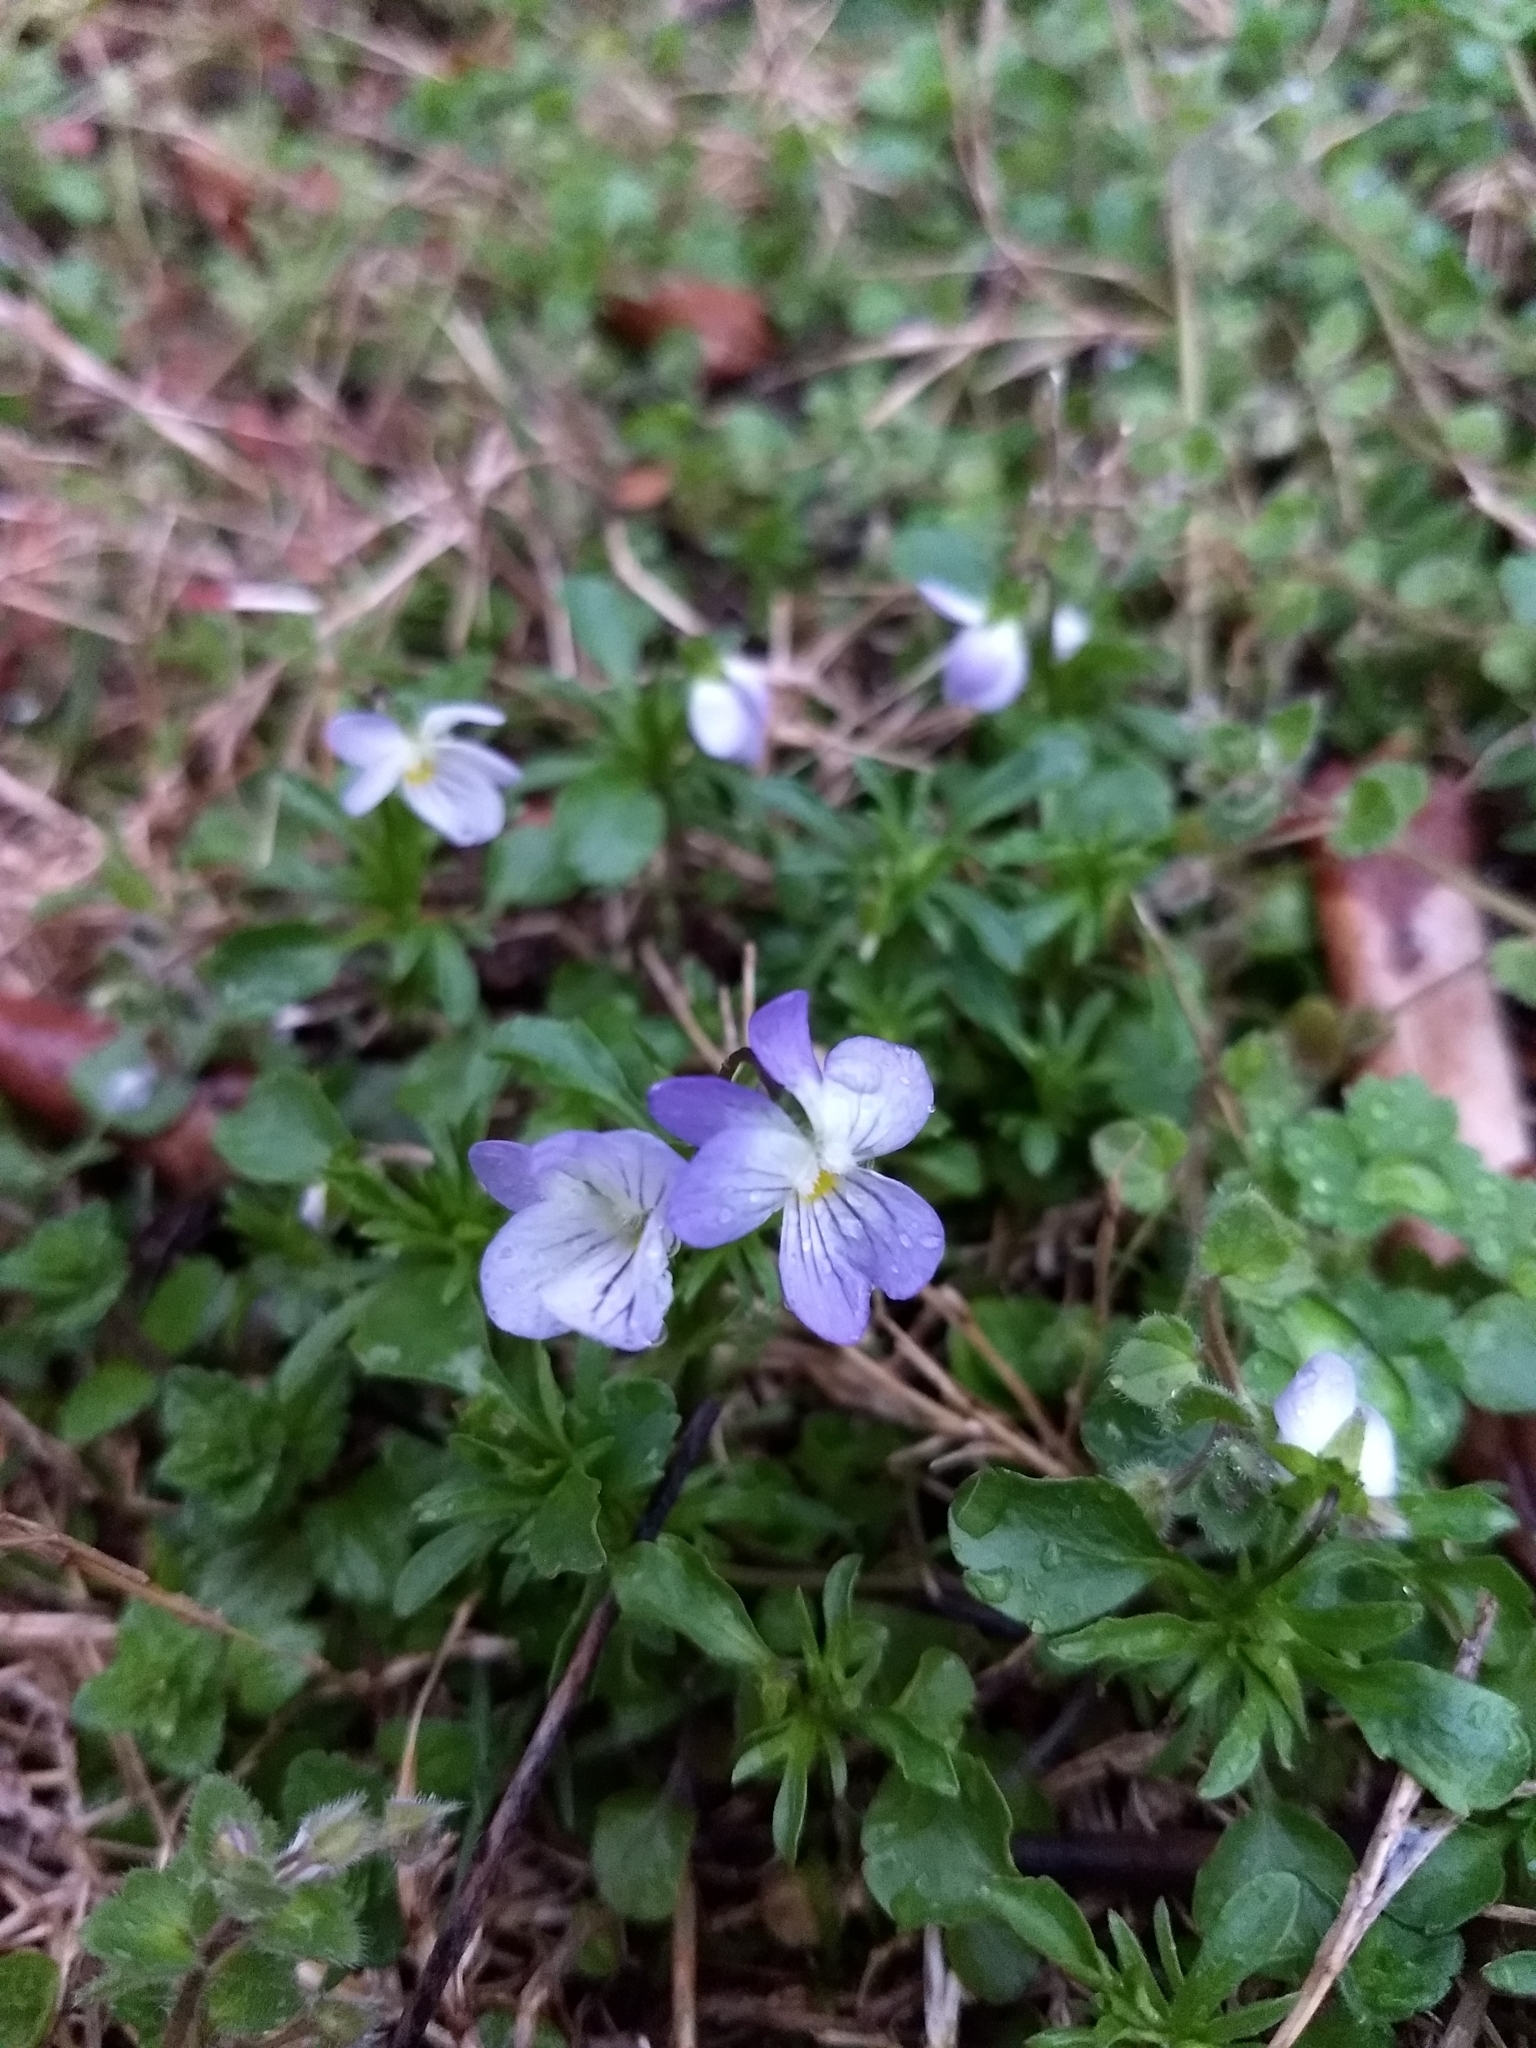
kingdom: Plantae
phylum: Tracheophyta
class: Magnoliopsida
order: Malpighiales
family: Violaceae
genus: Viola
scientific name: Viola rafinesquei
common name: American field pansy
